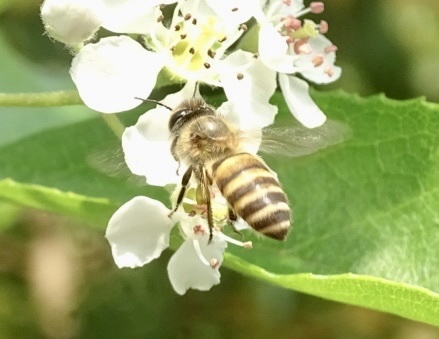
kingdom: Animalia
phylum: Arthropoda
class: Insecta
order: Hymenoptera
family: Apidae
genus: Apis
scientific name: Apis cerana
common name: Honey bee
